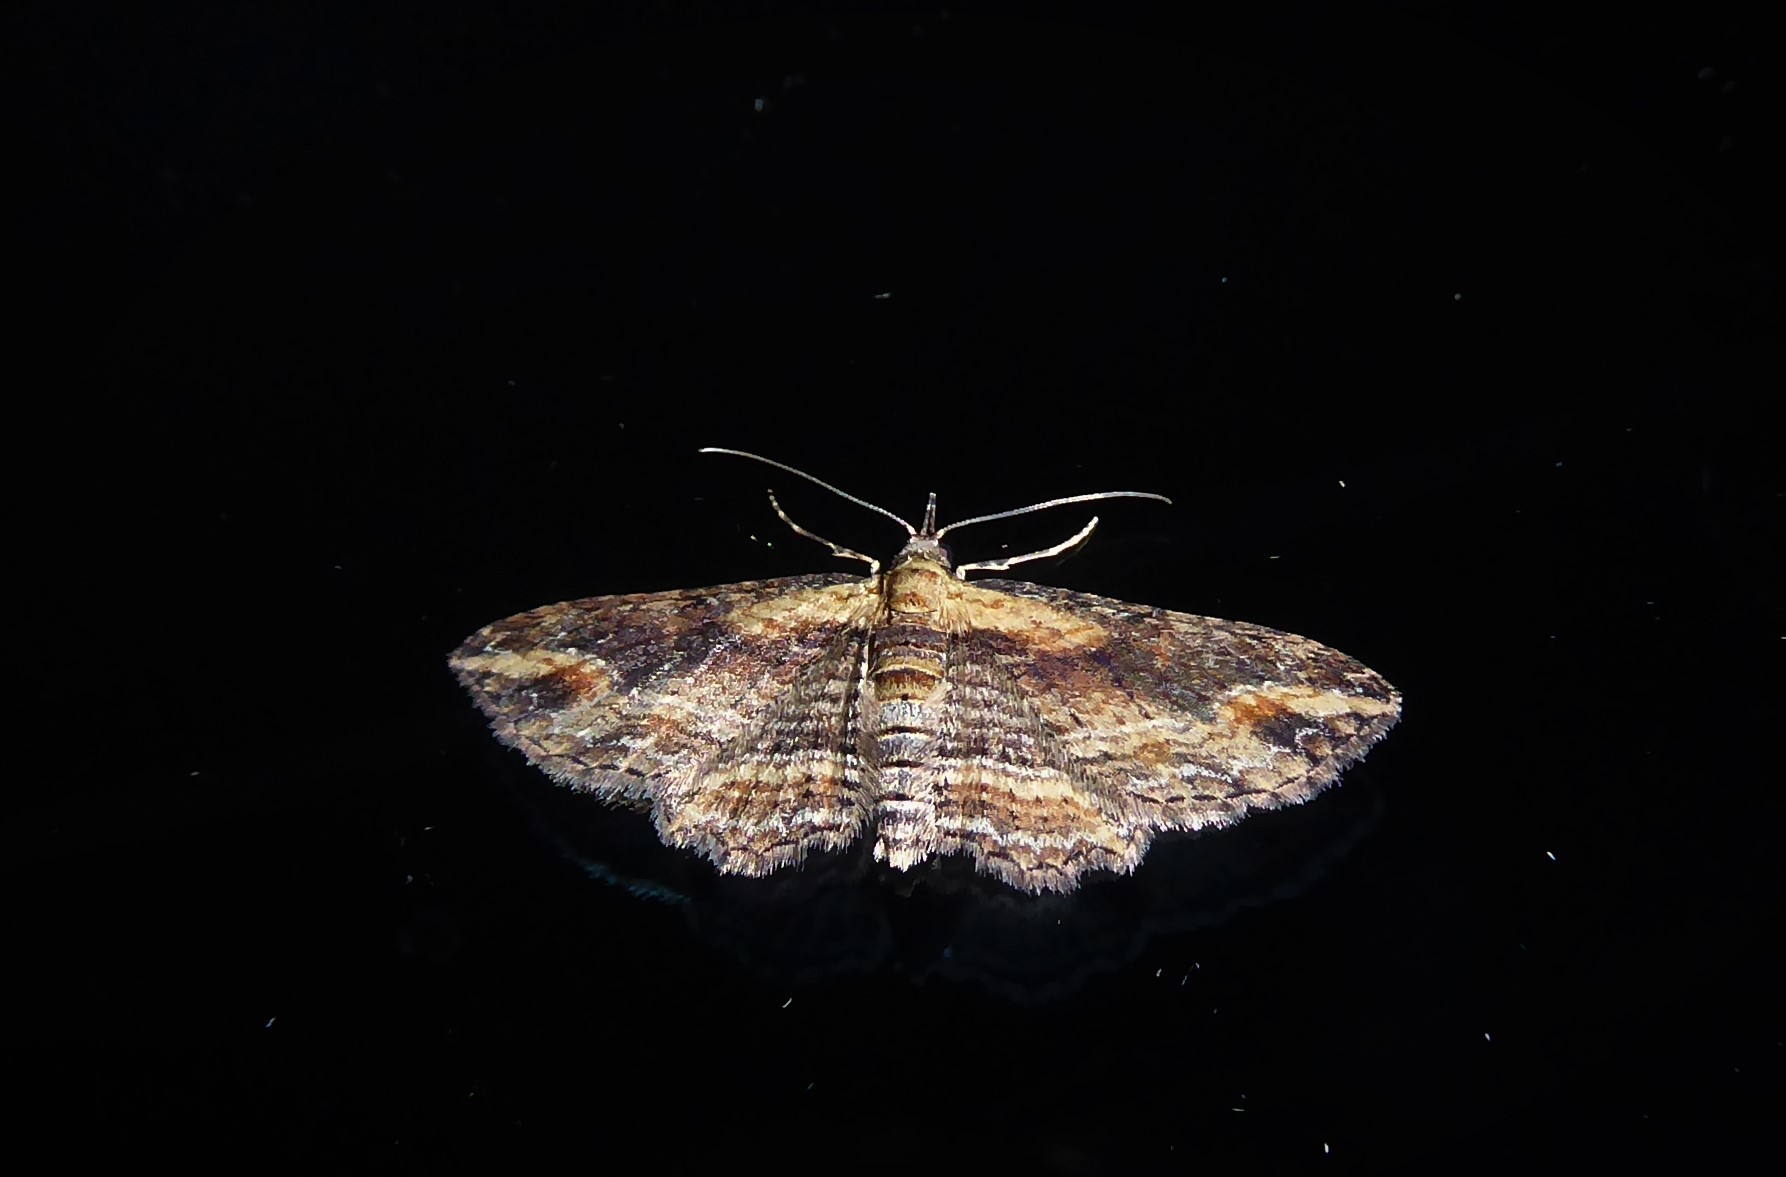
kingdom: Animalia
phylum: Arthropoda
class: Insecta
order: Lepidoptera
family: Geometridae
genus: Chloroclystis
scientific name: Chloroclystis filata
